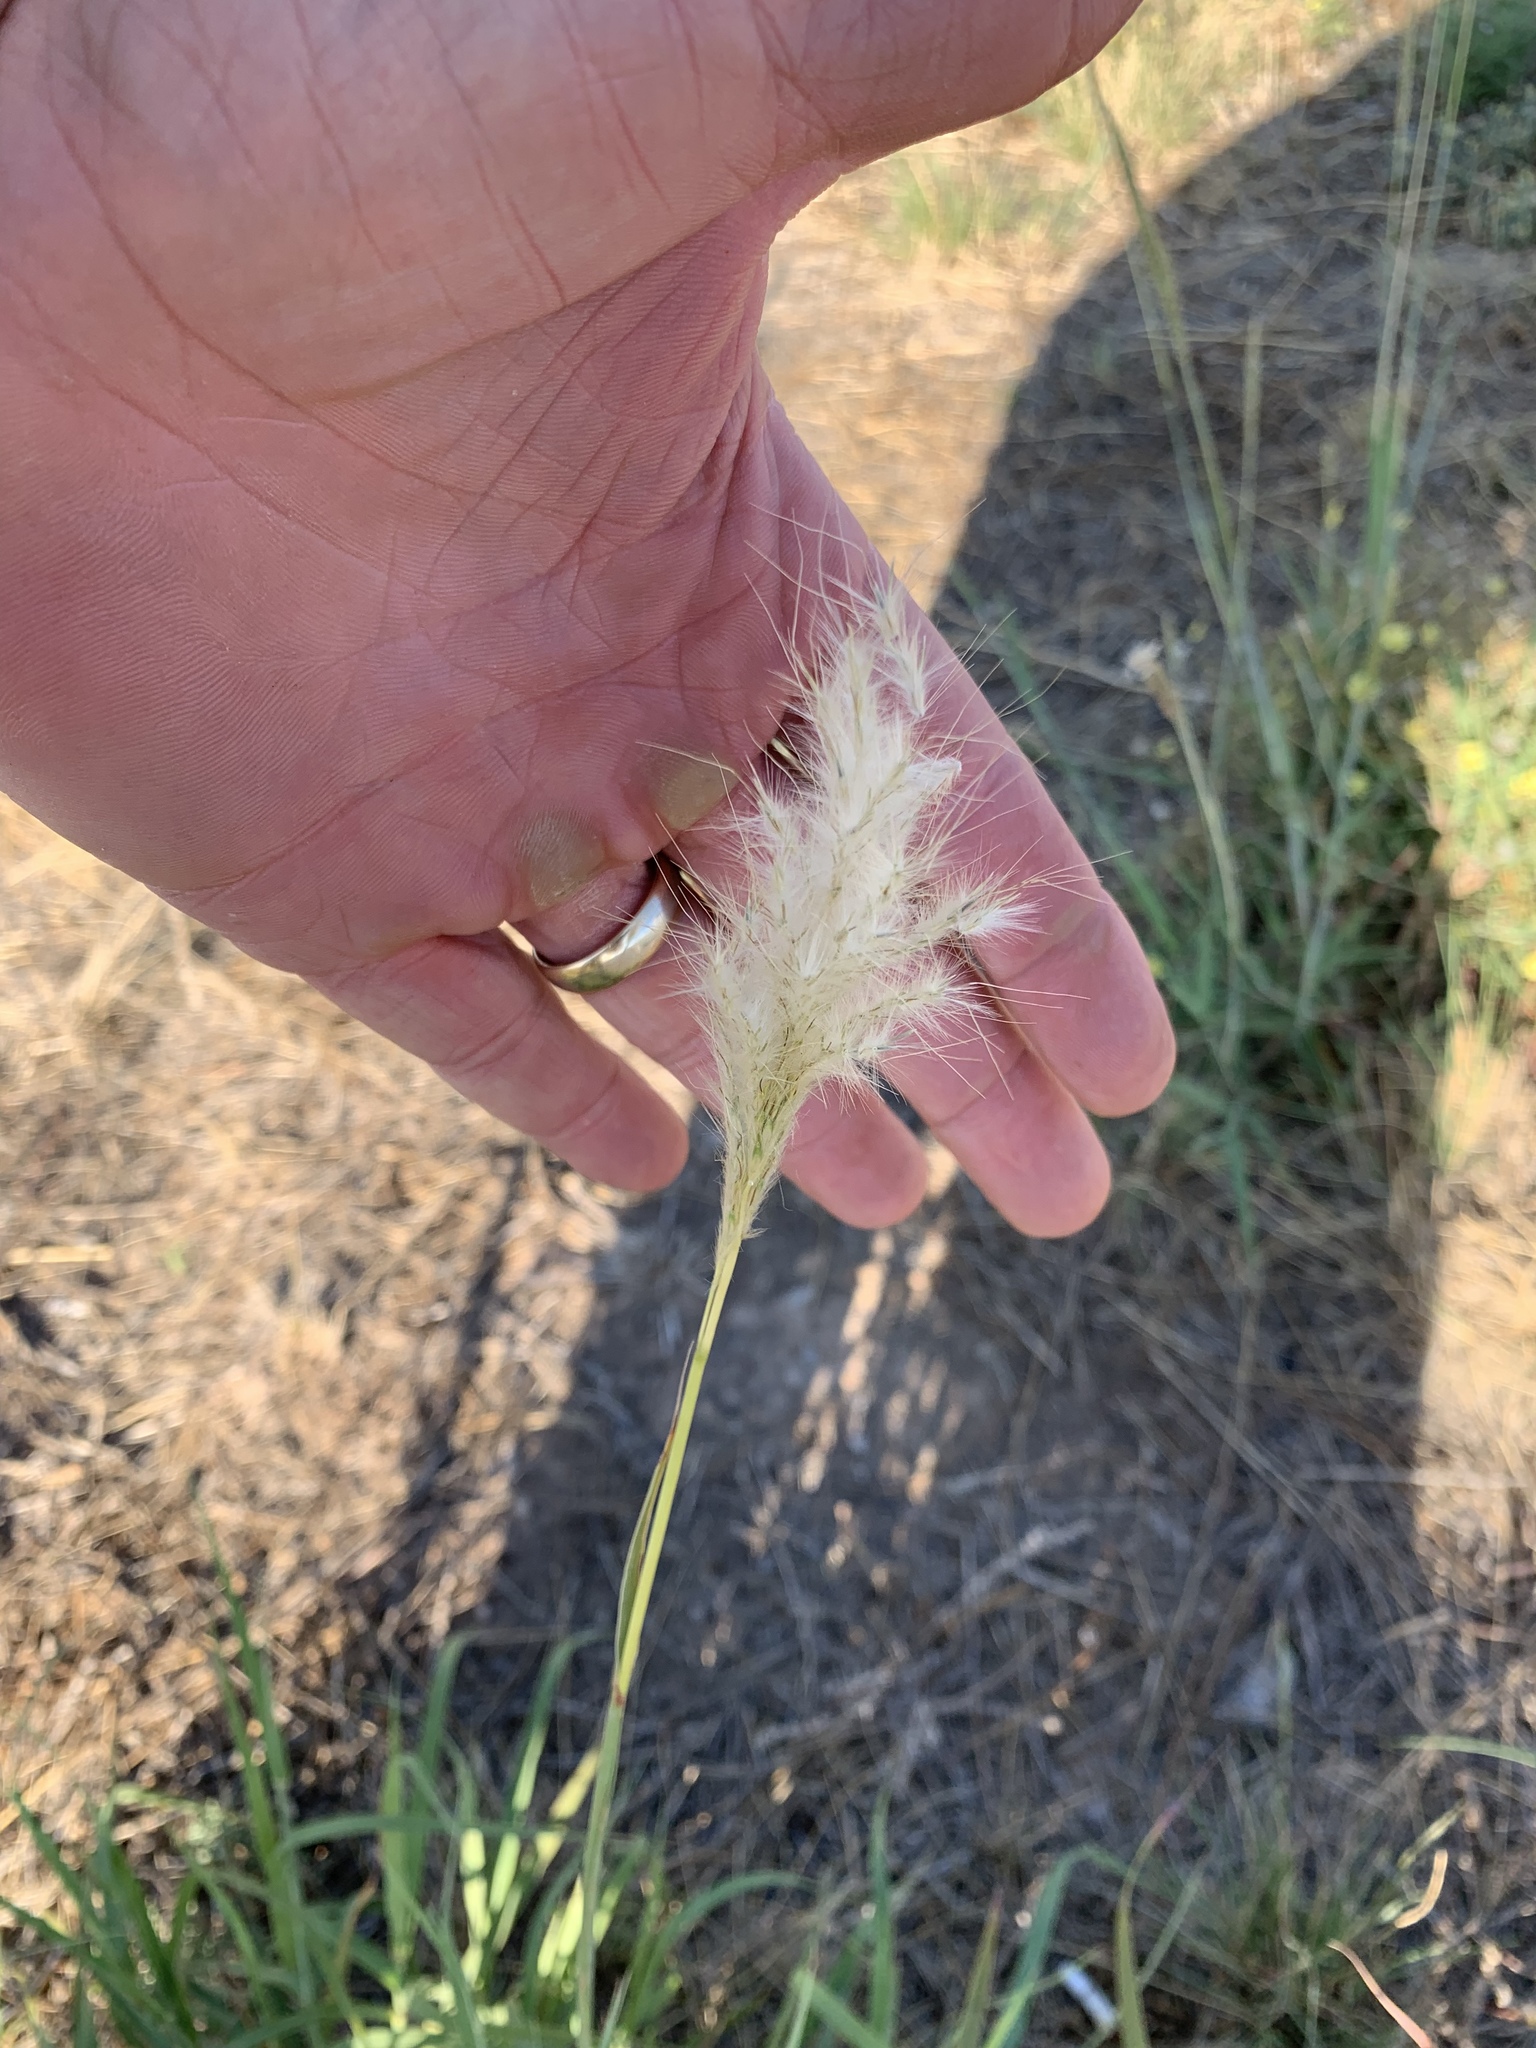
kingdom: Plantae
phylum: Tracheophyta
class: Liliopsida
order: Poales
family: Poaceae
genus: Bothriochloa
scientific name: Bothriochloa torreyana
